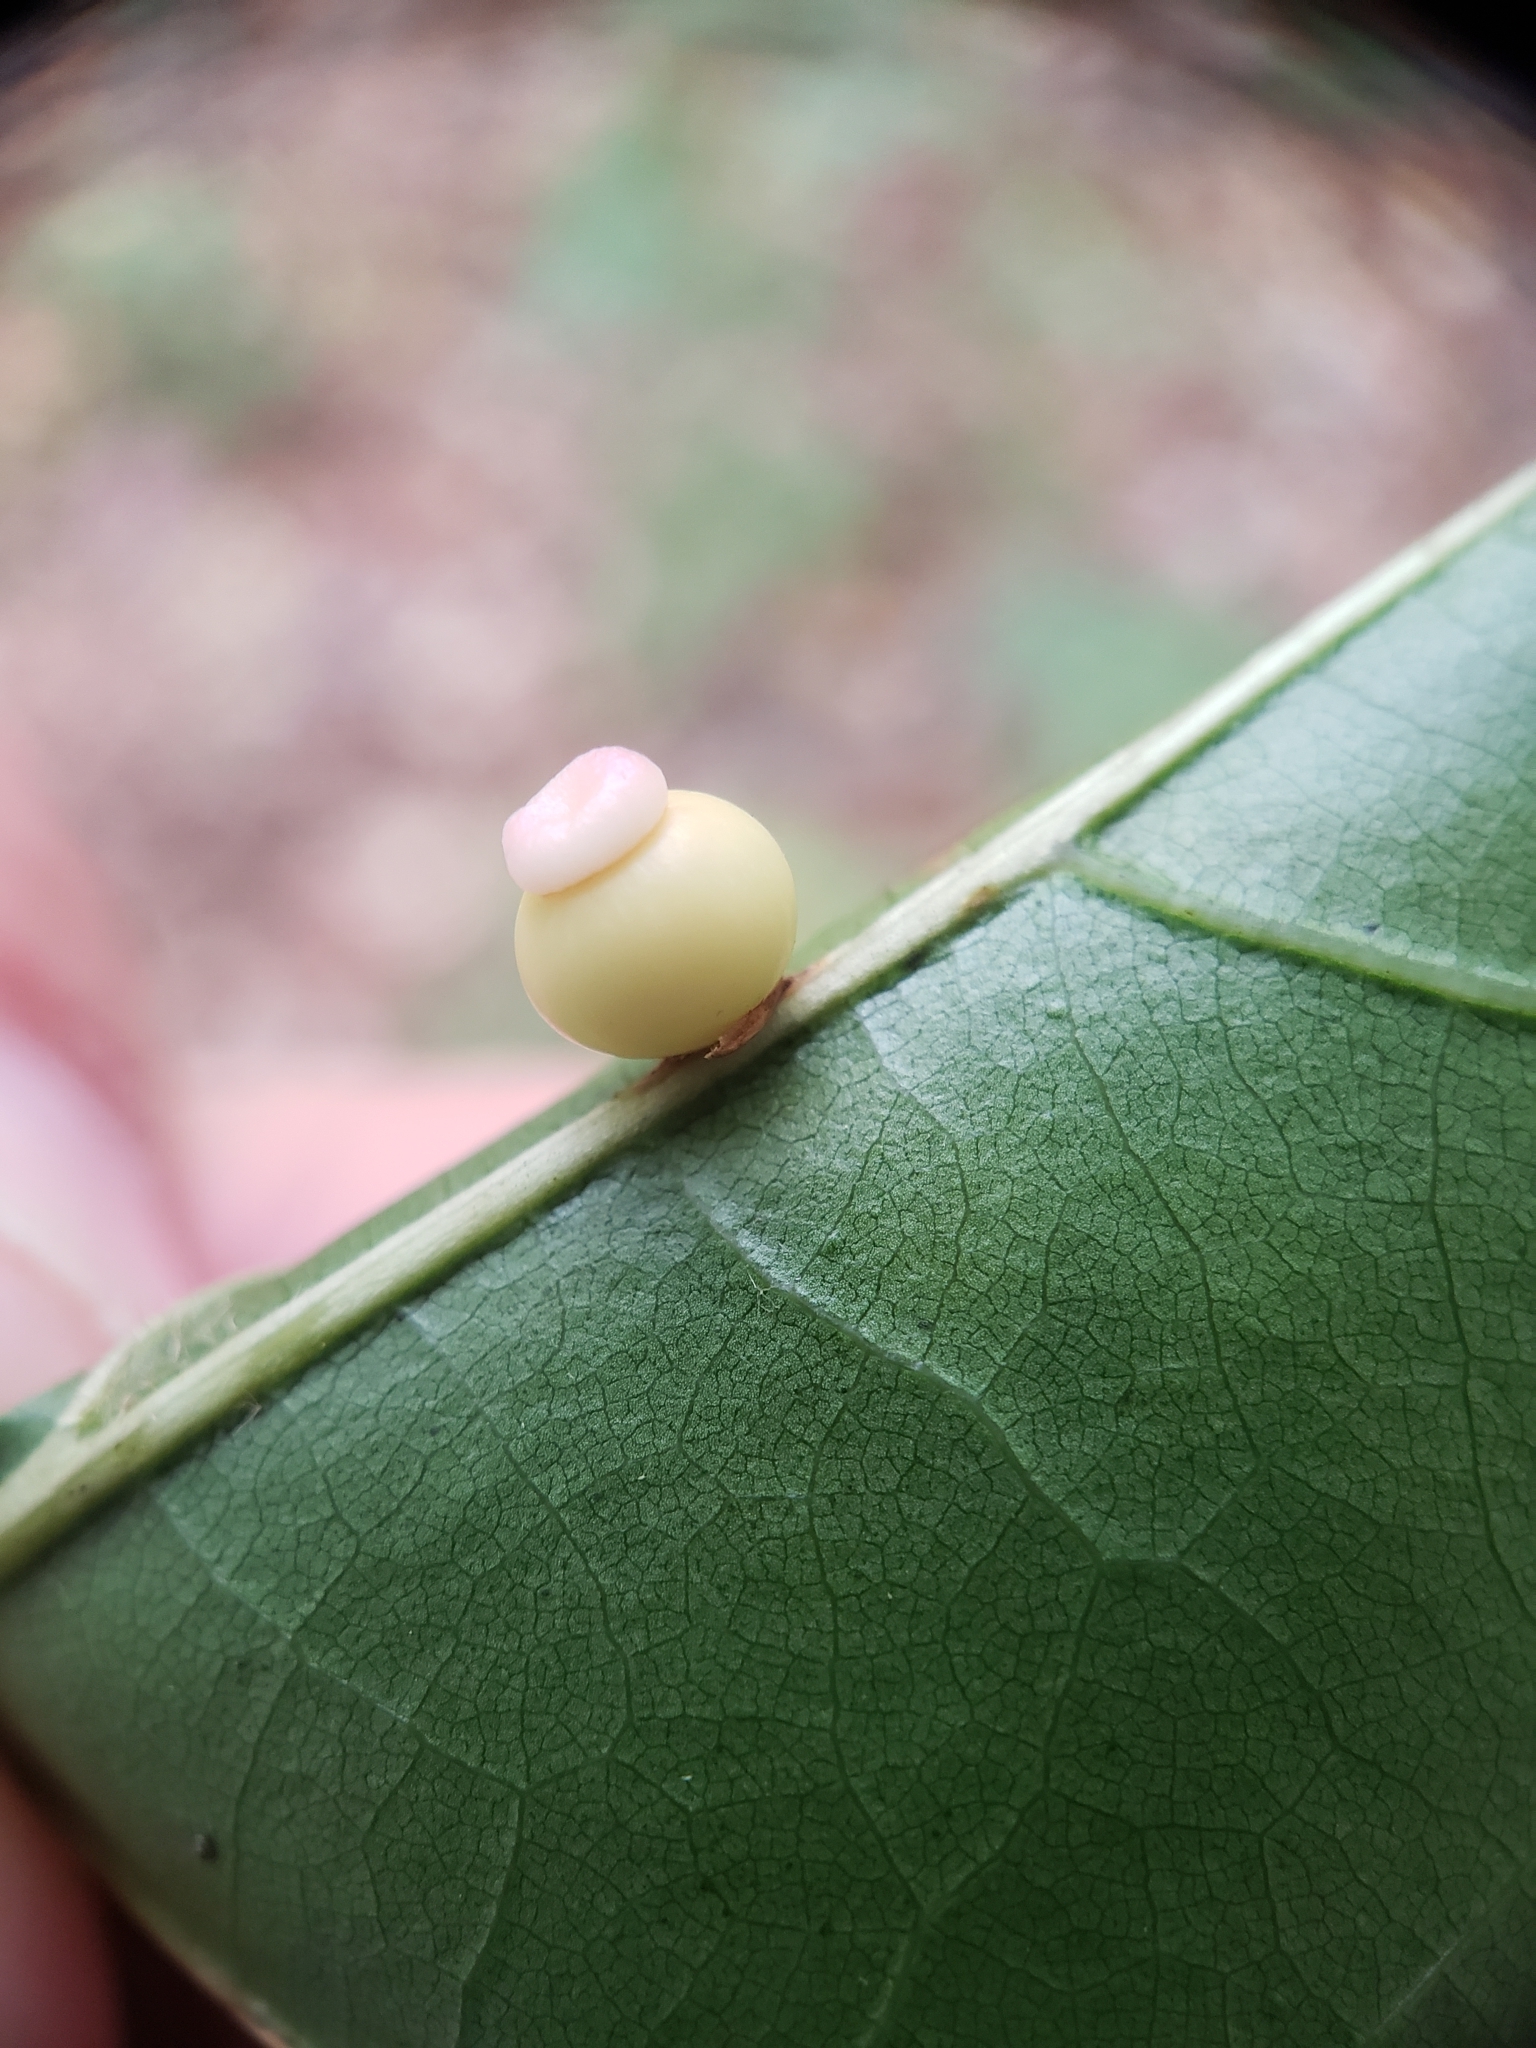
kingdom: Animalia
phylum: Arthropoda
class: Insecta
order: Hymenoptera
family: Cynipidae
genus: Kokkocynips
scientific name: Kokkocynips rileyi
